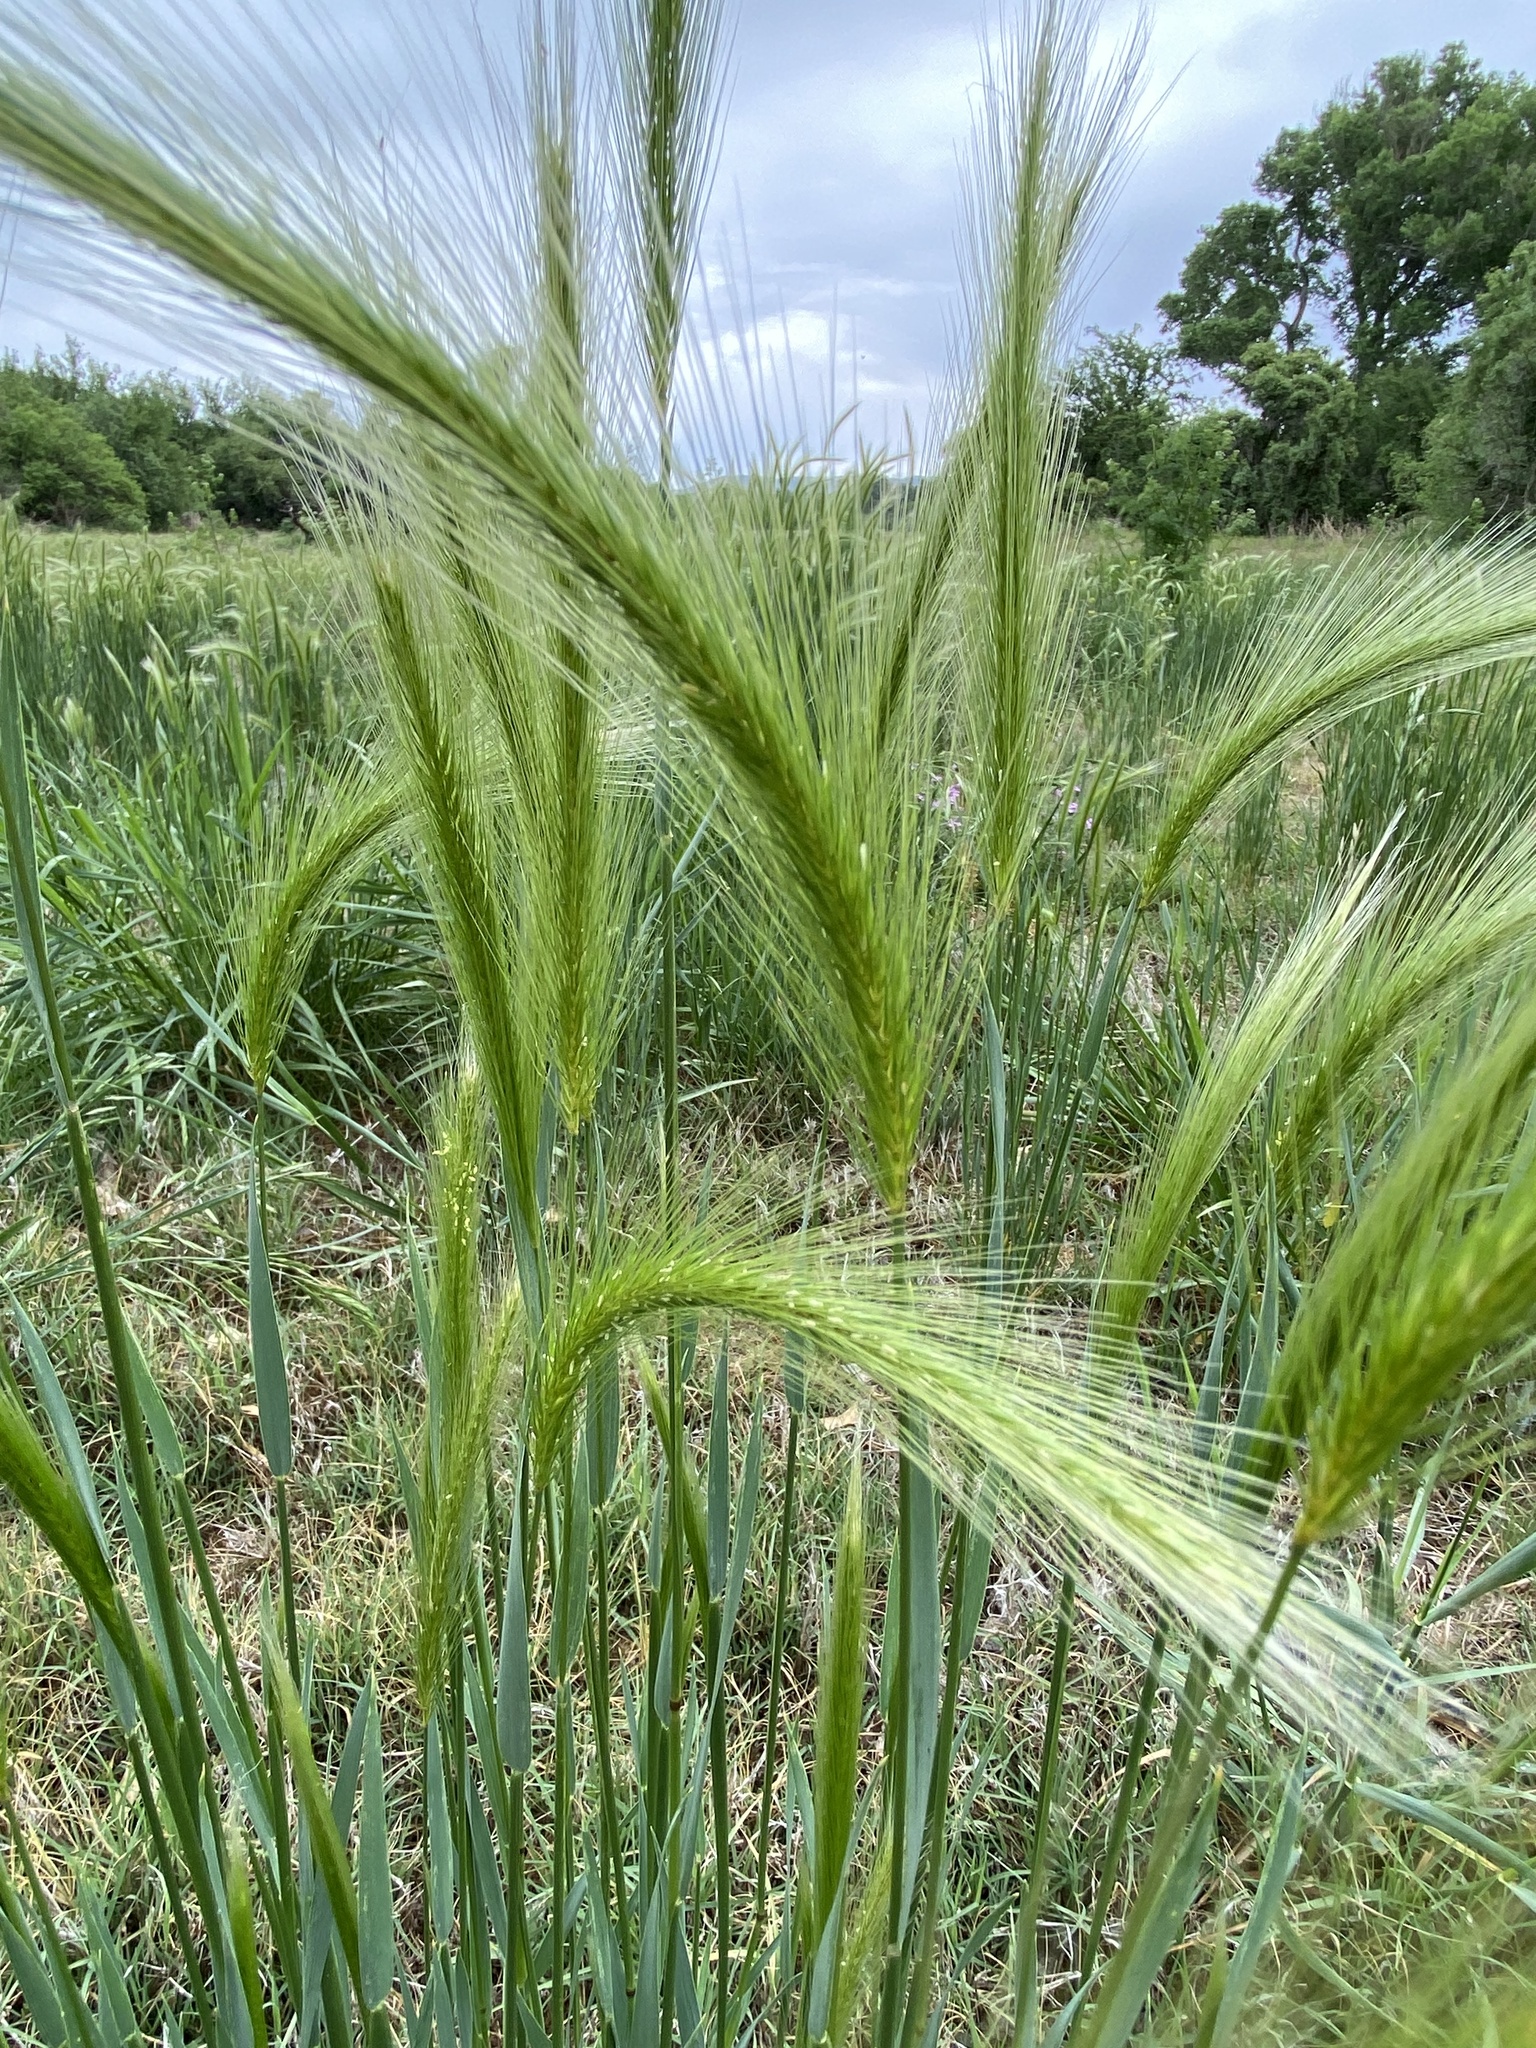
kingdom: Plantae
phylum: Tracheophyta
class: Liliopsida
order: Poales
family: Poaceae
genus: Hordeum
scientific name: Hordeum murinum
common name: Wall barley
